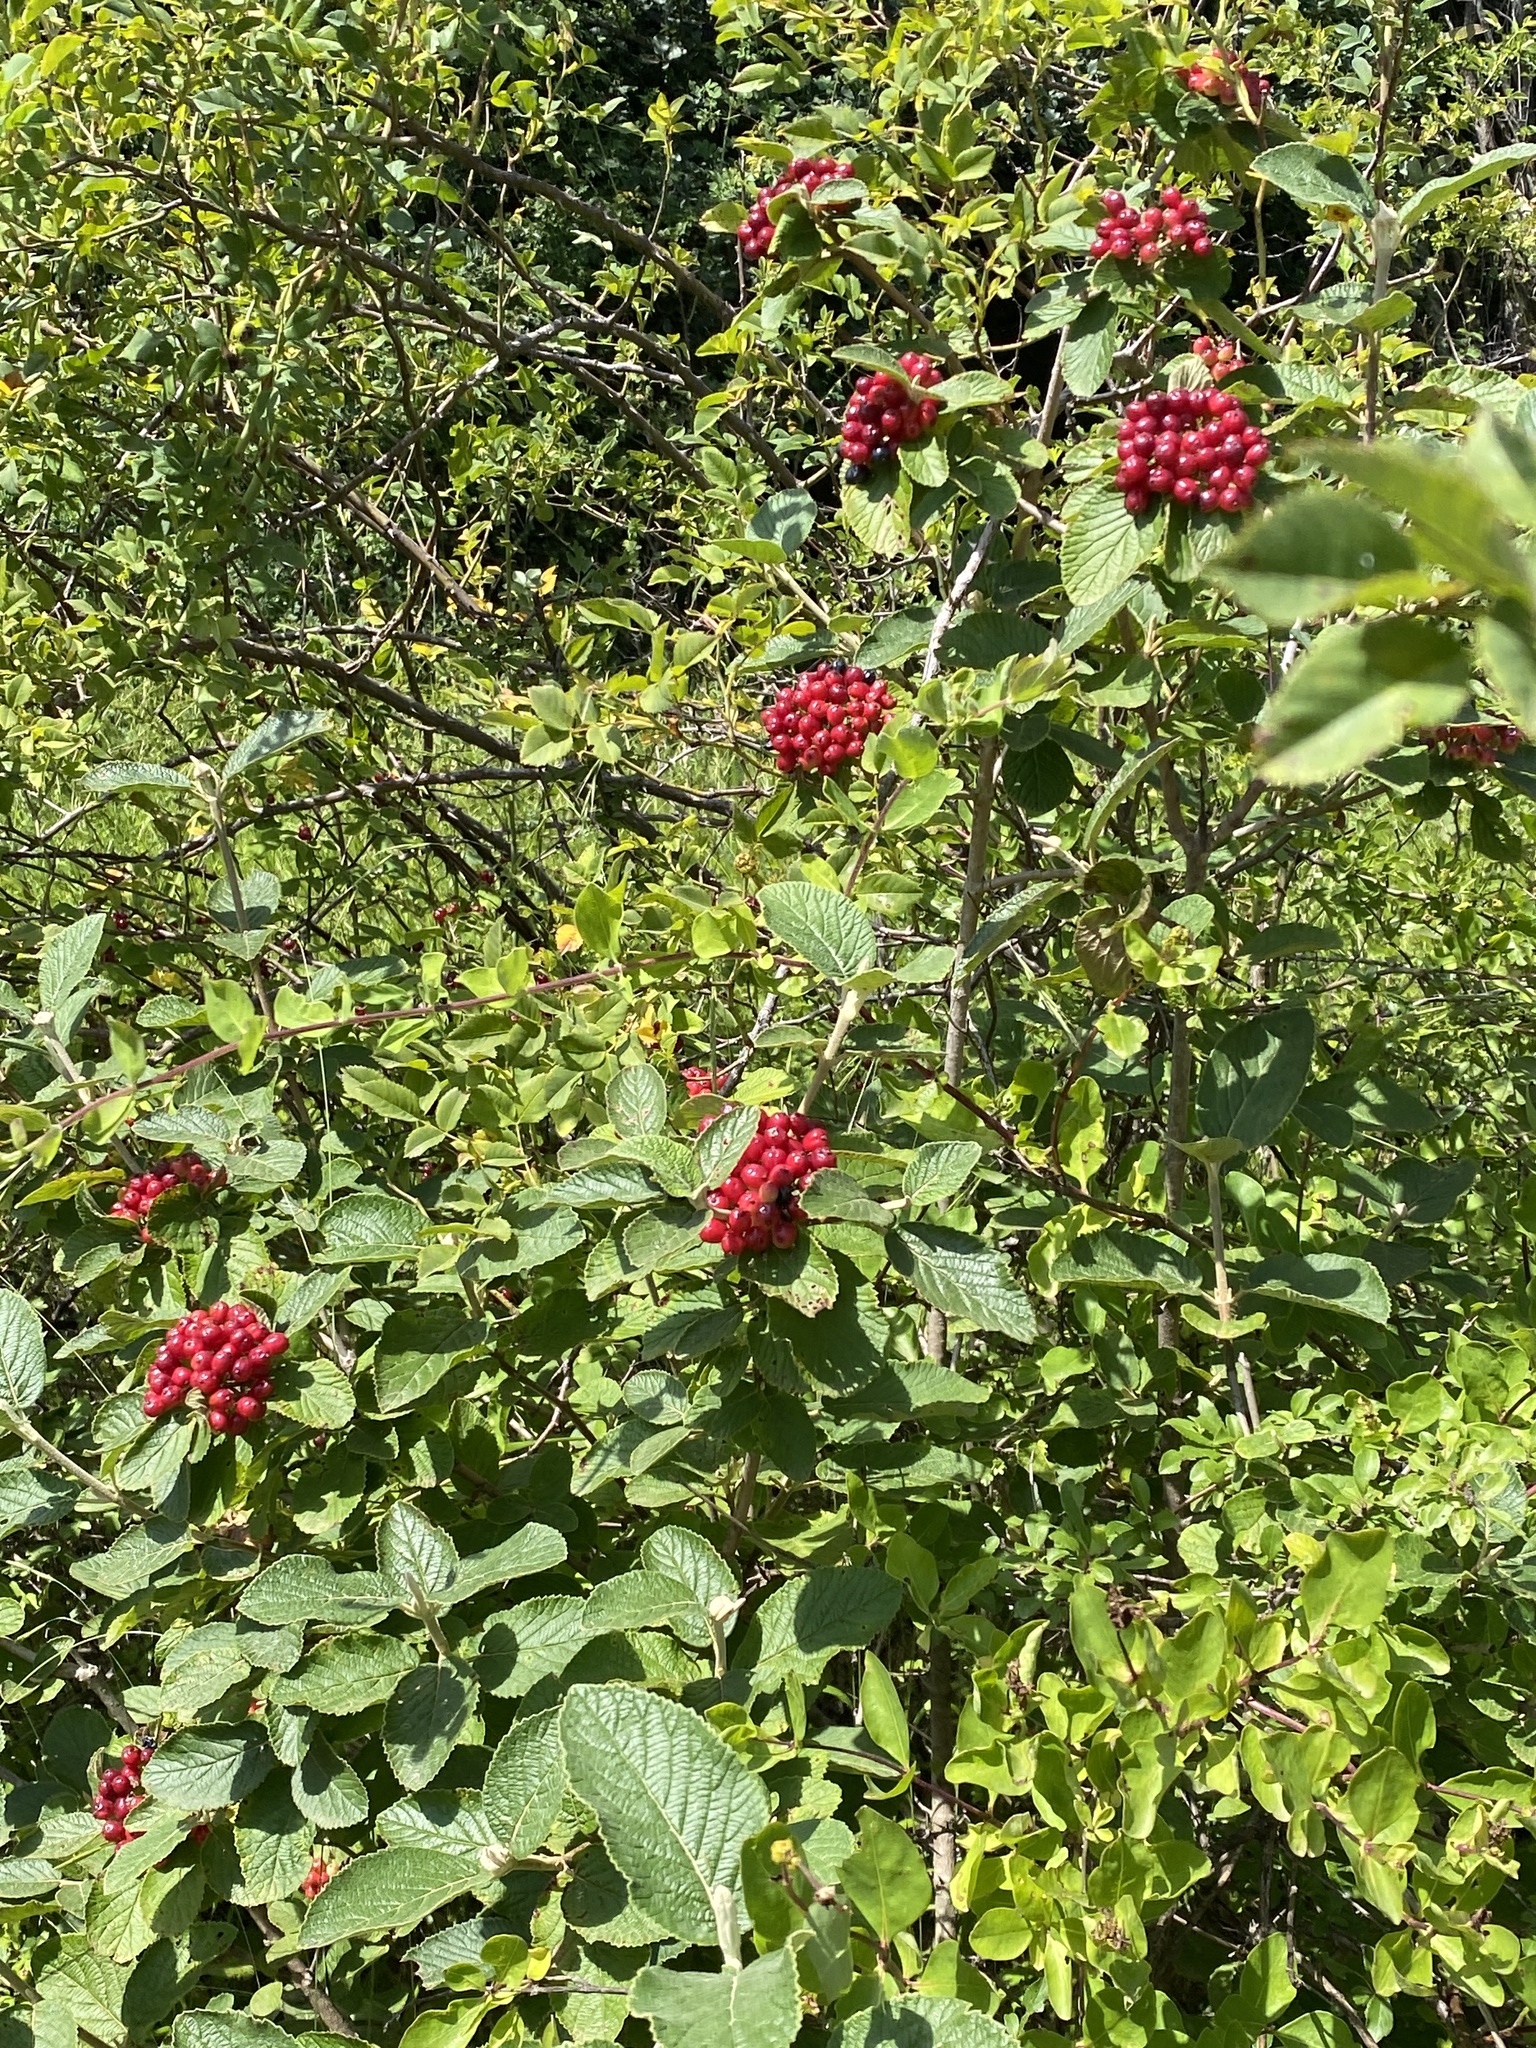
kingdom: Plantae
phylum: Tracheophyta
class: Magnoliopsida
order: Dipsacales
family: Viburnaceae
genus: Viburnum
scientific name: Viburnum lantana
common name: Wayfaring tree
